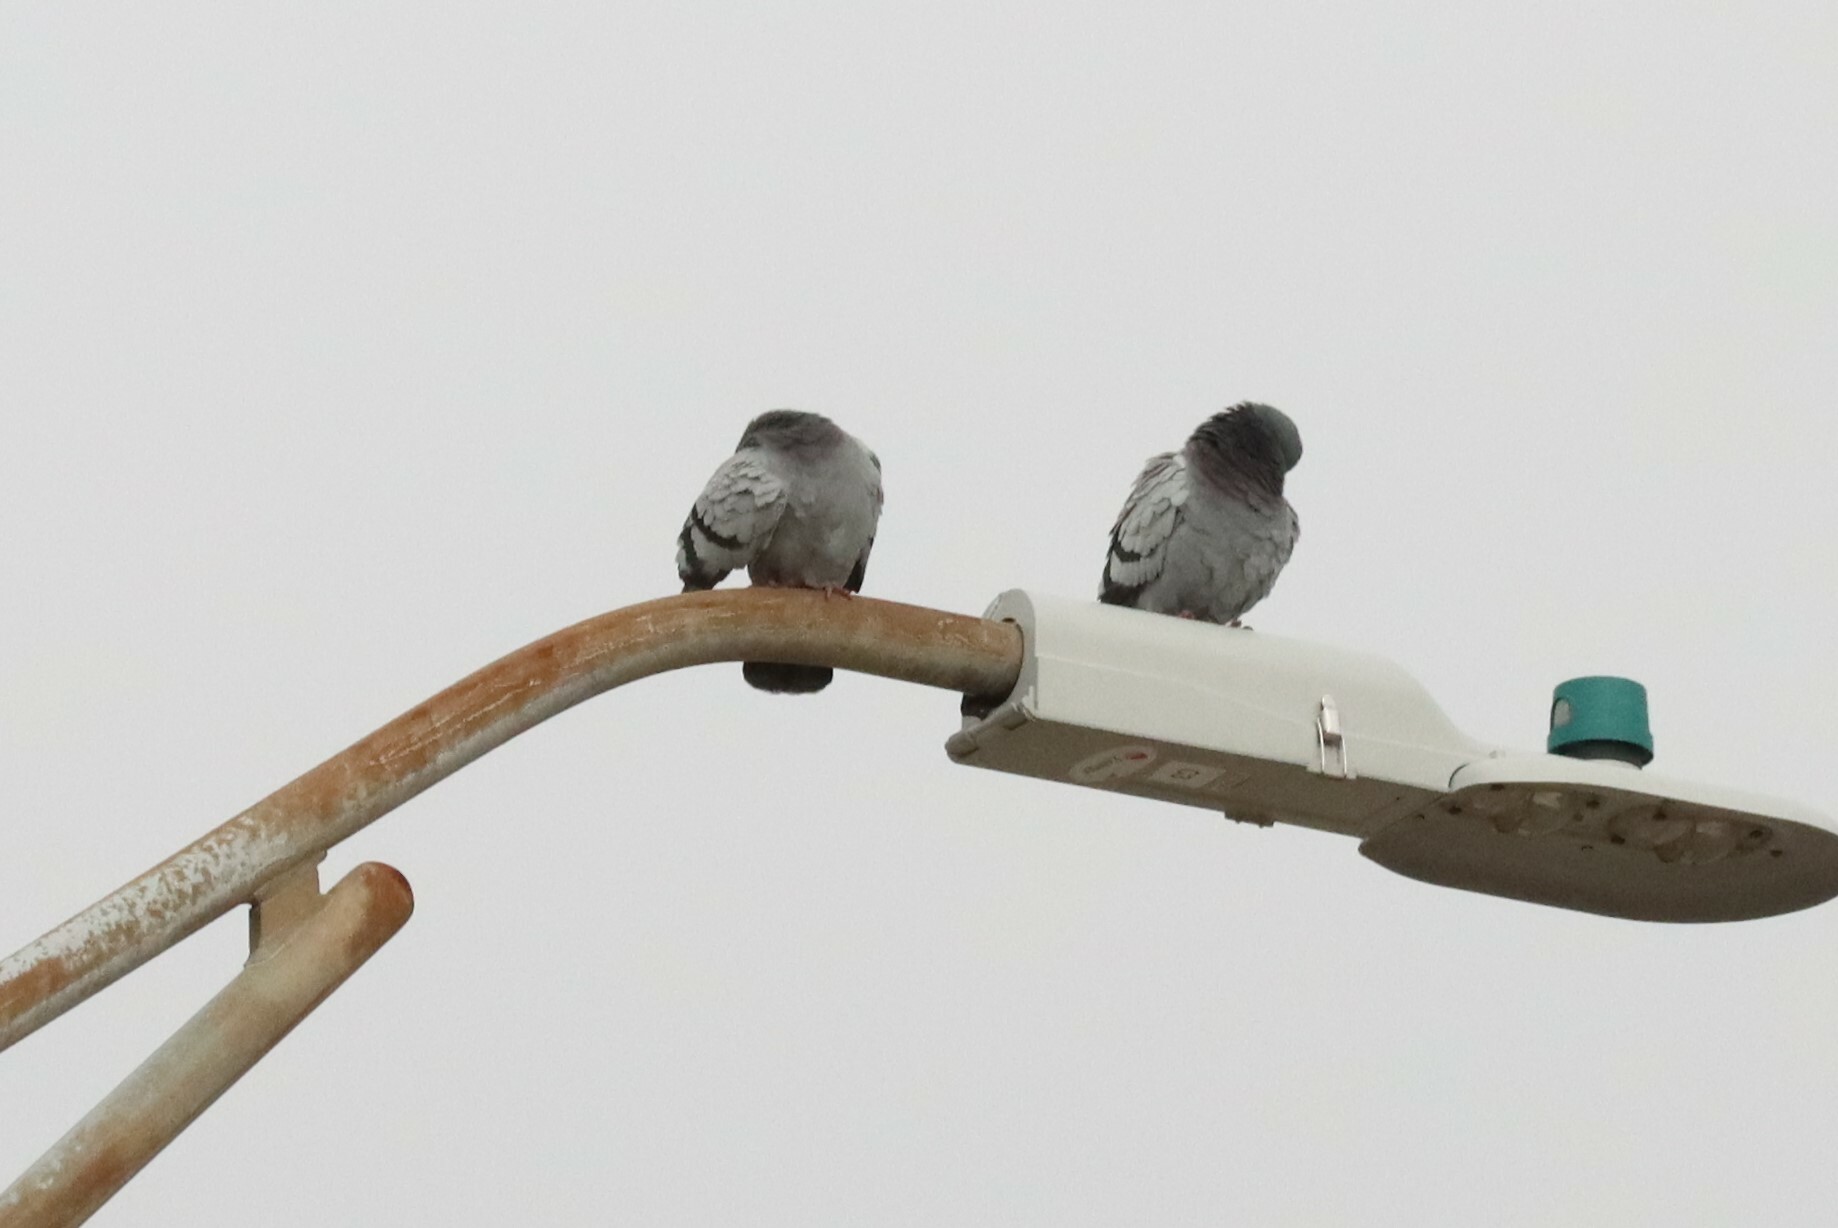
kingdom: Animalia
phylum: Chordata
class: Aves
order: Columbiformes
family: Columbidae
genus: Columba
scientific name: Columba livia
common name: Rock pigeon
